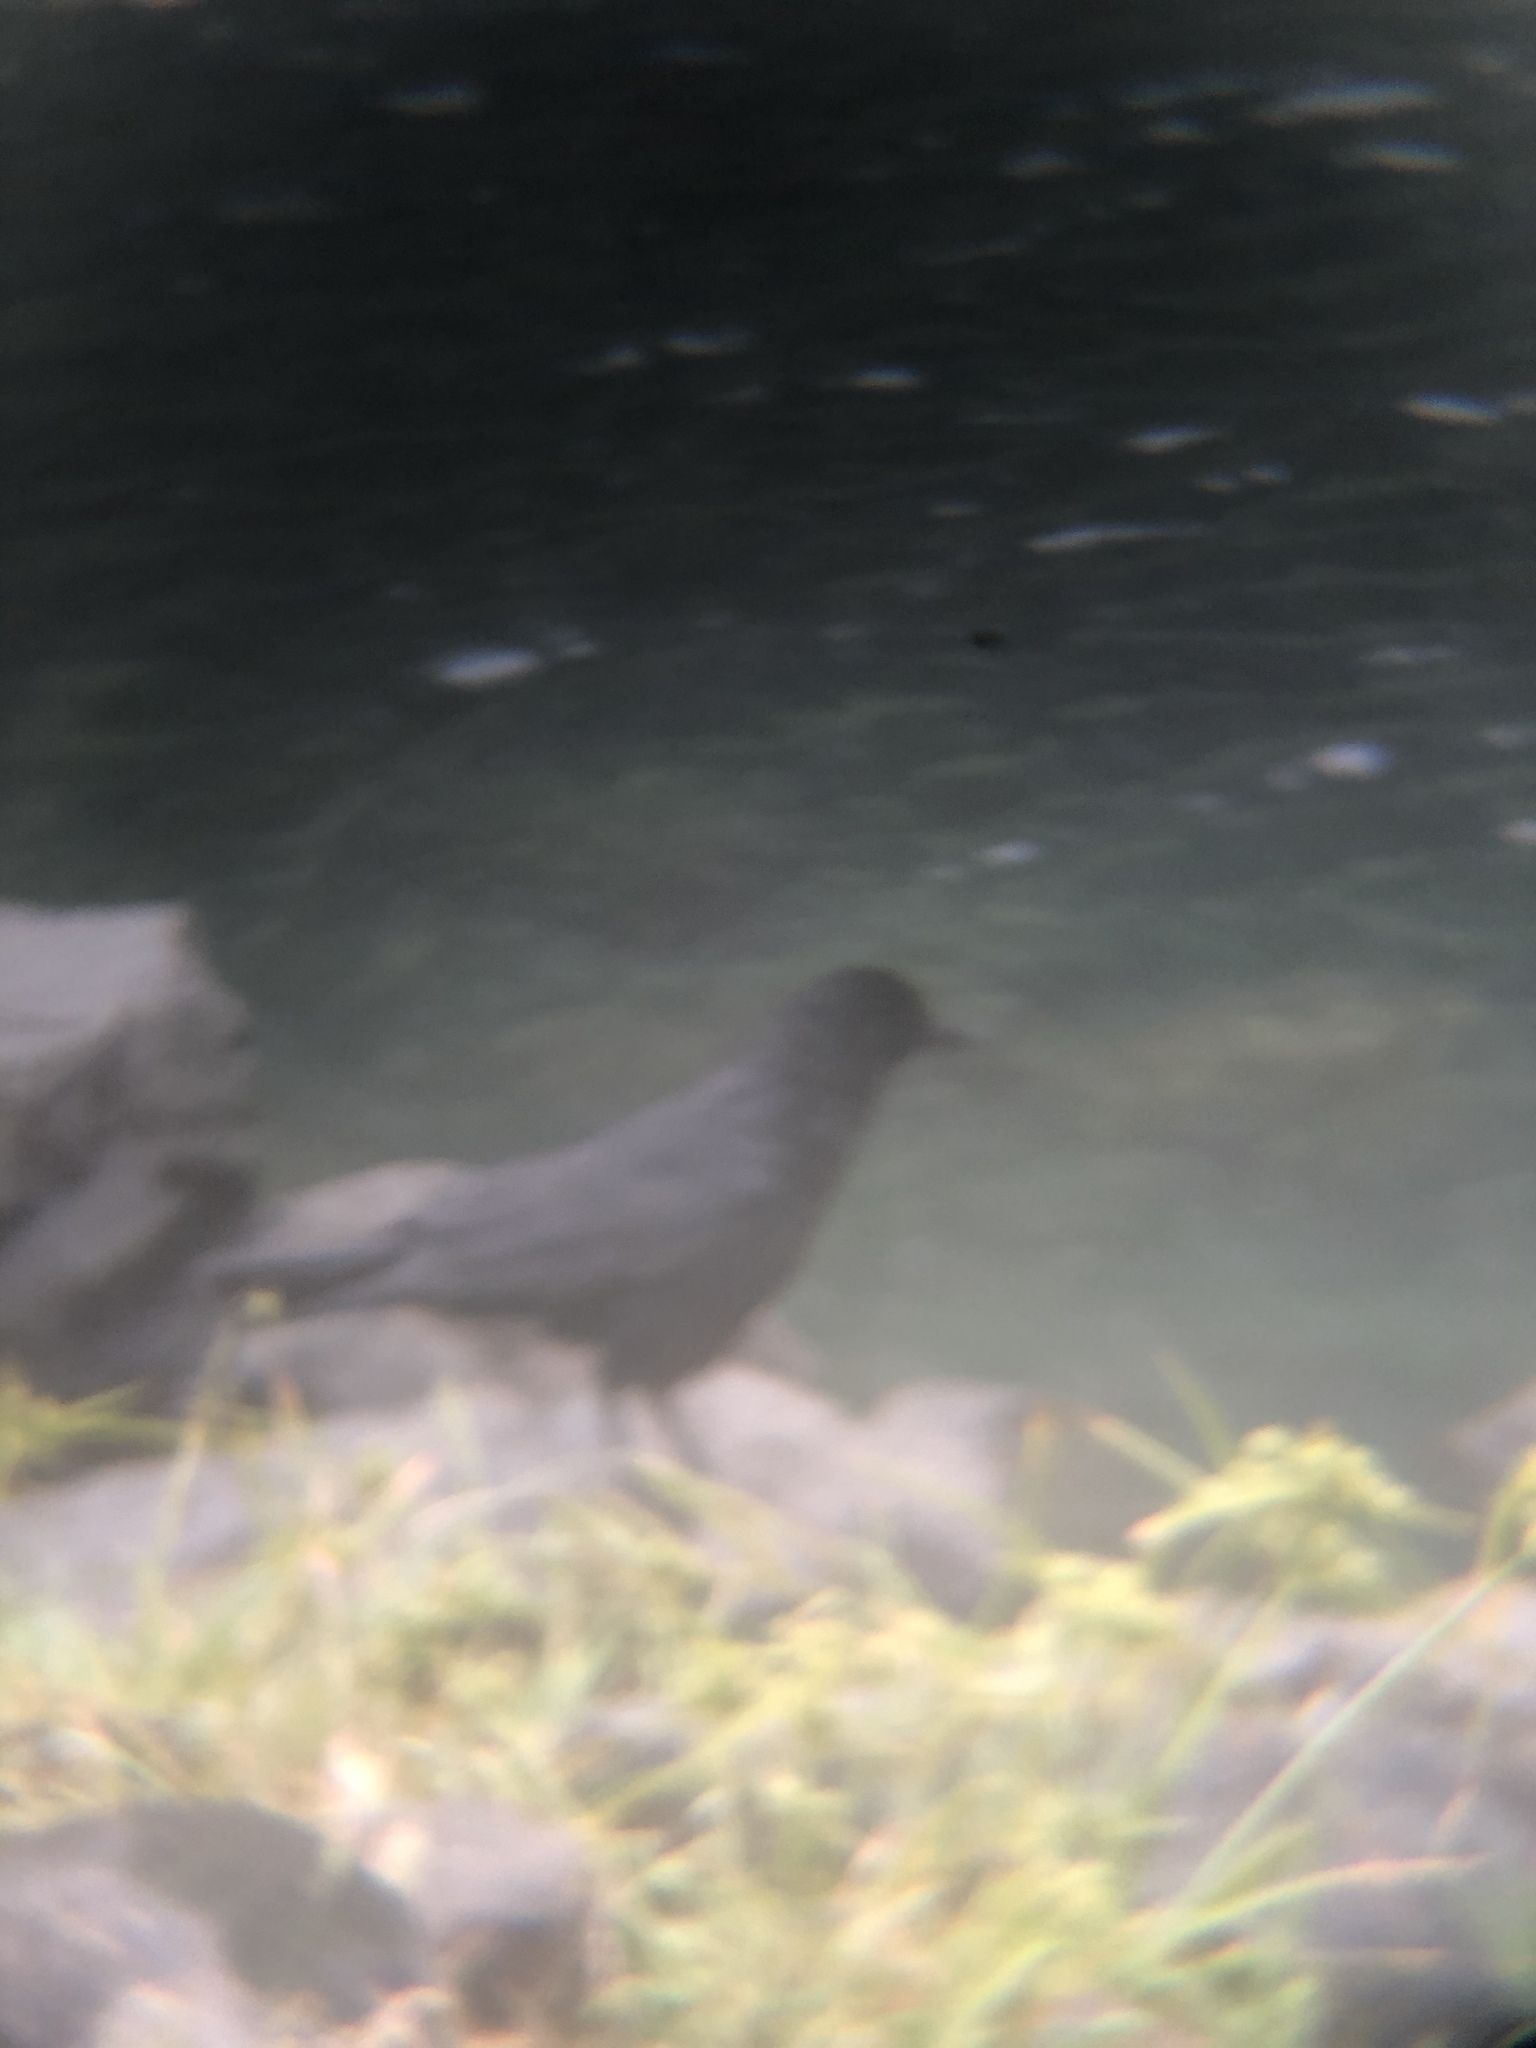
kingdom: Animalia
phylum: Chordata
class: Aves
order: Passeriformes
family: Corvidae
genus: Corvus
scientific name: Corvus brachyrhynchos
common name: American crow
